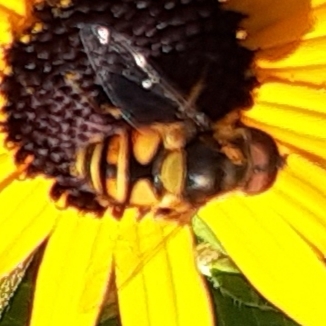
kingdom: Animalia
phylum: Arthropoda
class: Insecta
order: Diptera
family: Syrphidae
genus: Eristalis
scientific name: Eristalis transversa
